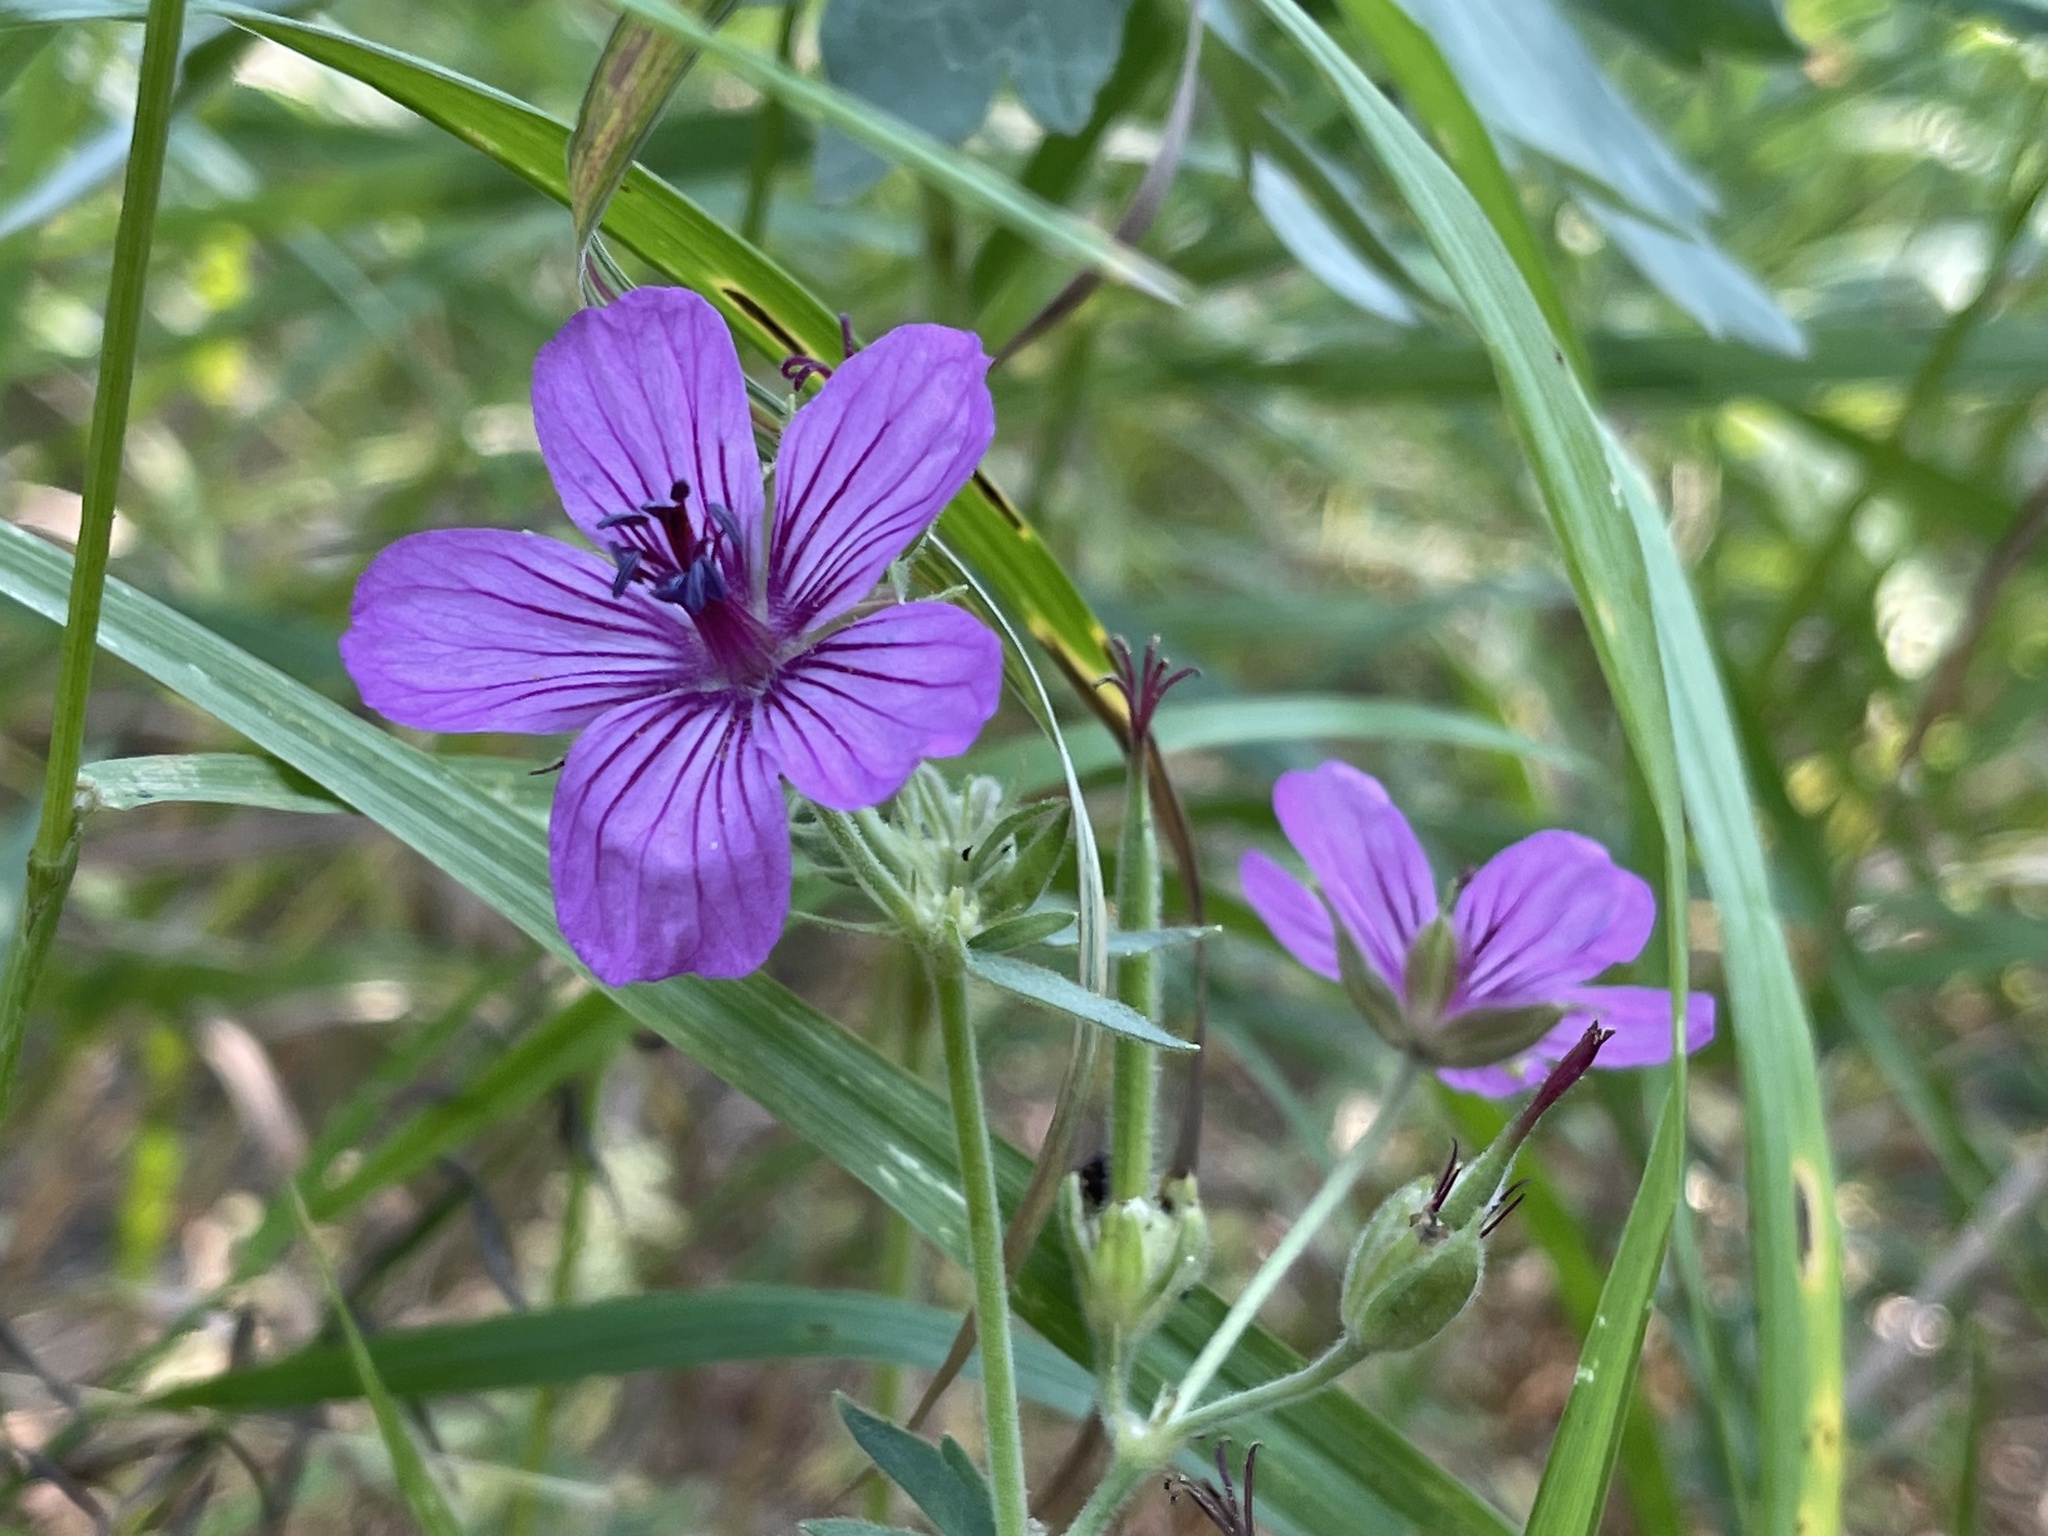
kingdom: Plantae
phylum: Tracheophyta
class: Magnoliopsida
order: Geraniales
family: Geraniaceae
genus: Geranium
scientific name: Geranium viscosissimum
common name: Purple geranium
